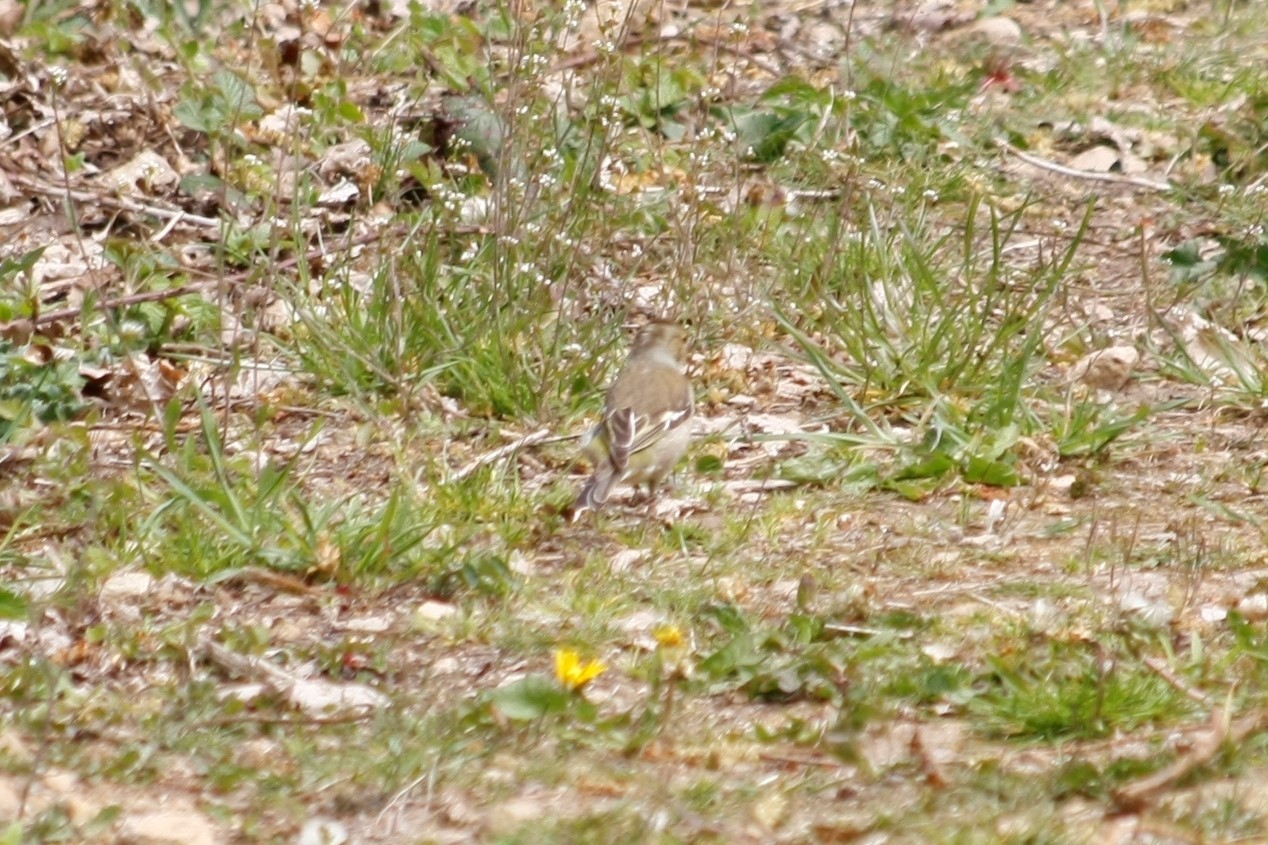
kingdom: Animalia
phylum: Chordata
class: Aves
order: Passeriformes
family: Fringillidae
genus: Fringilla
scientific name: Fringilla coelebs
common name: Common chaffinch
